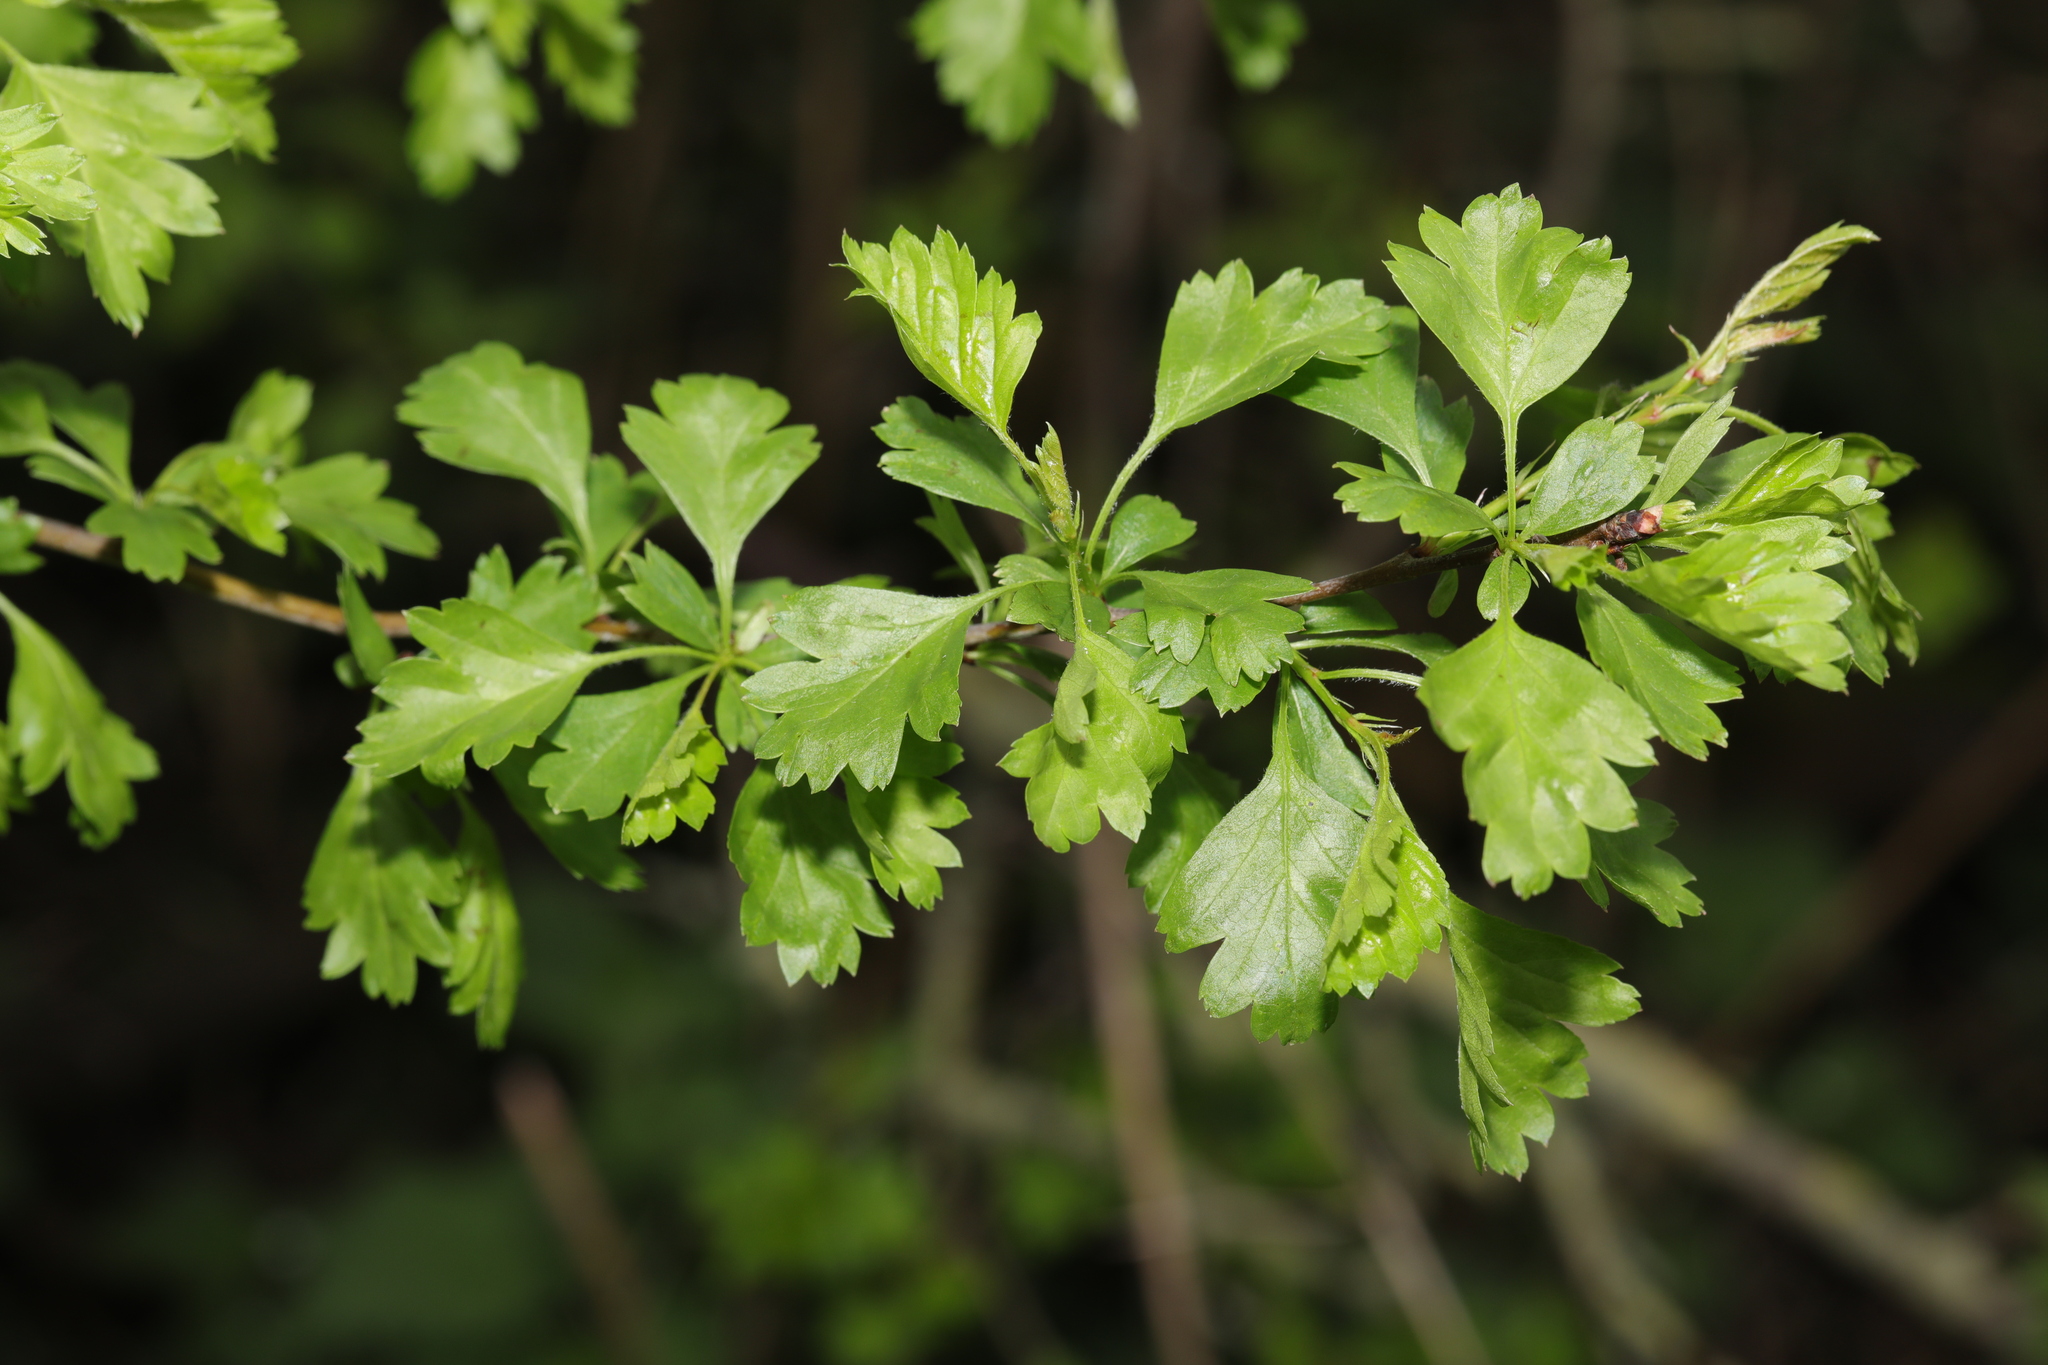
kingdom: Plantae
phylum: Tracheophyta
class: Magnoliopsida
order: Rosales
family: Rosaceae
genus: Crataegus
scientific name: Crataegus monogyna
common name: Hawthorn
